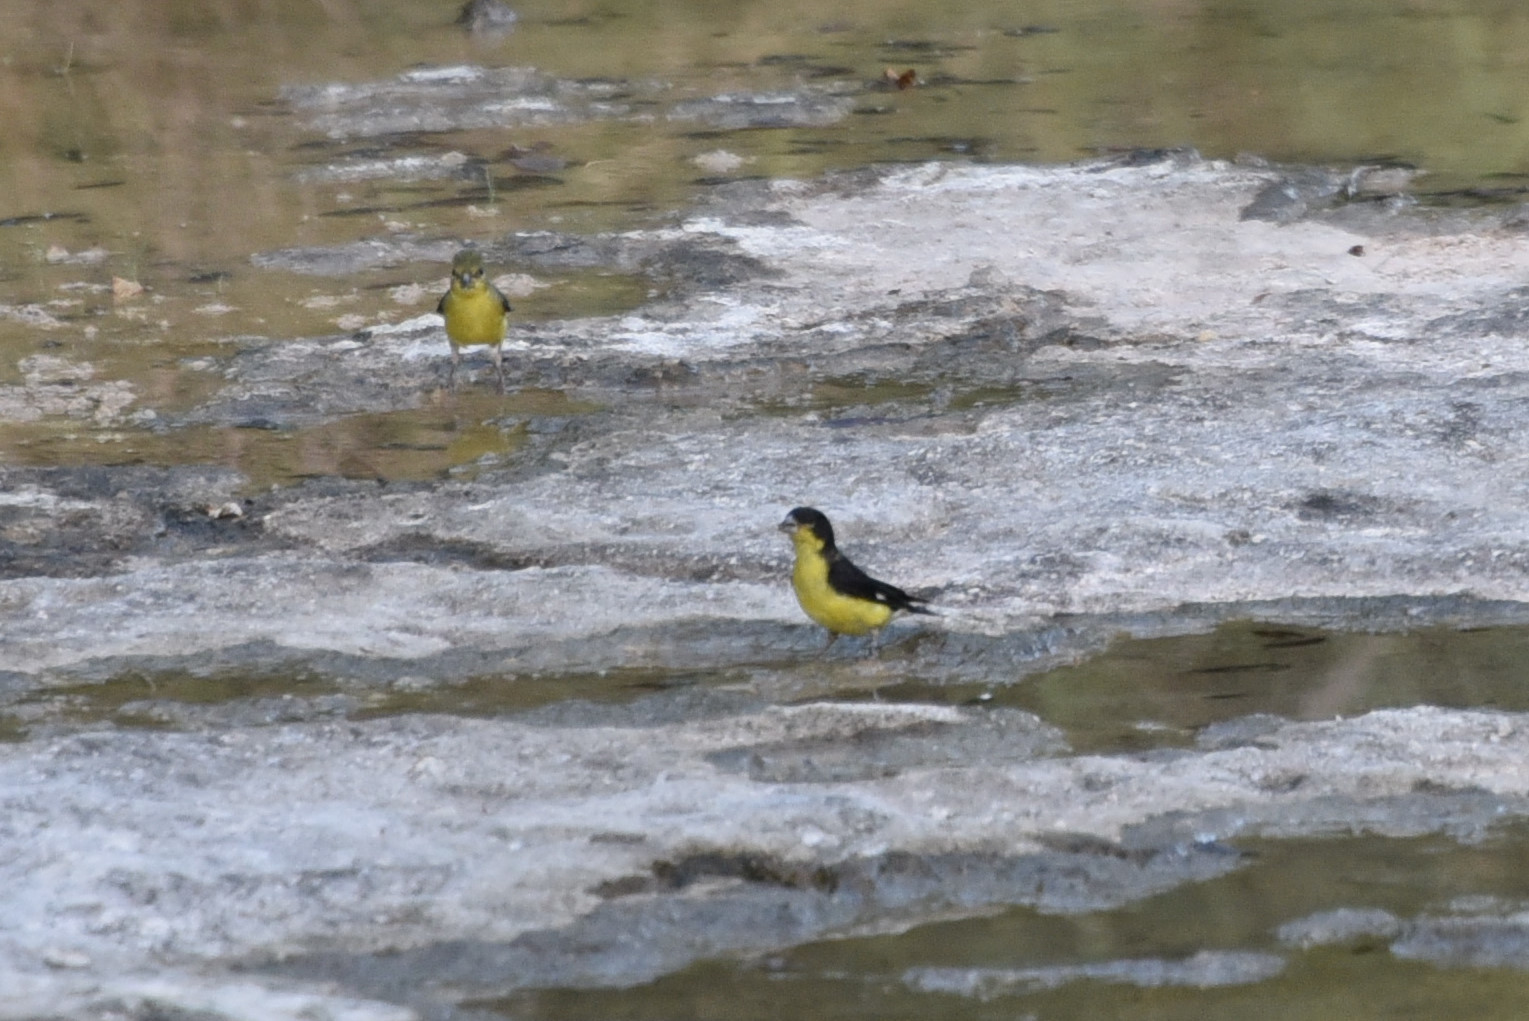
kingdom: Animalia
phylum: Chordata
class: Aves
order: Passeriformes
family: Fringillidae
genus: Spinus
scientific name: Spinus psaltria
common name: Lesser goldfinch
